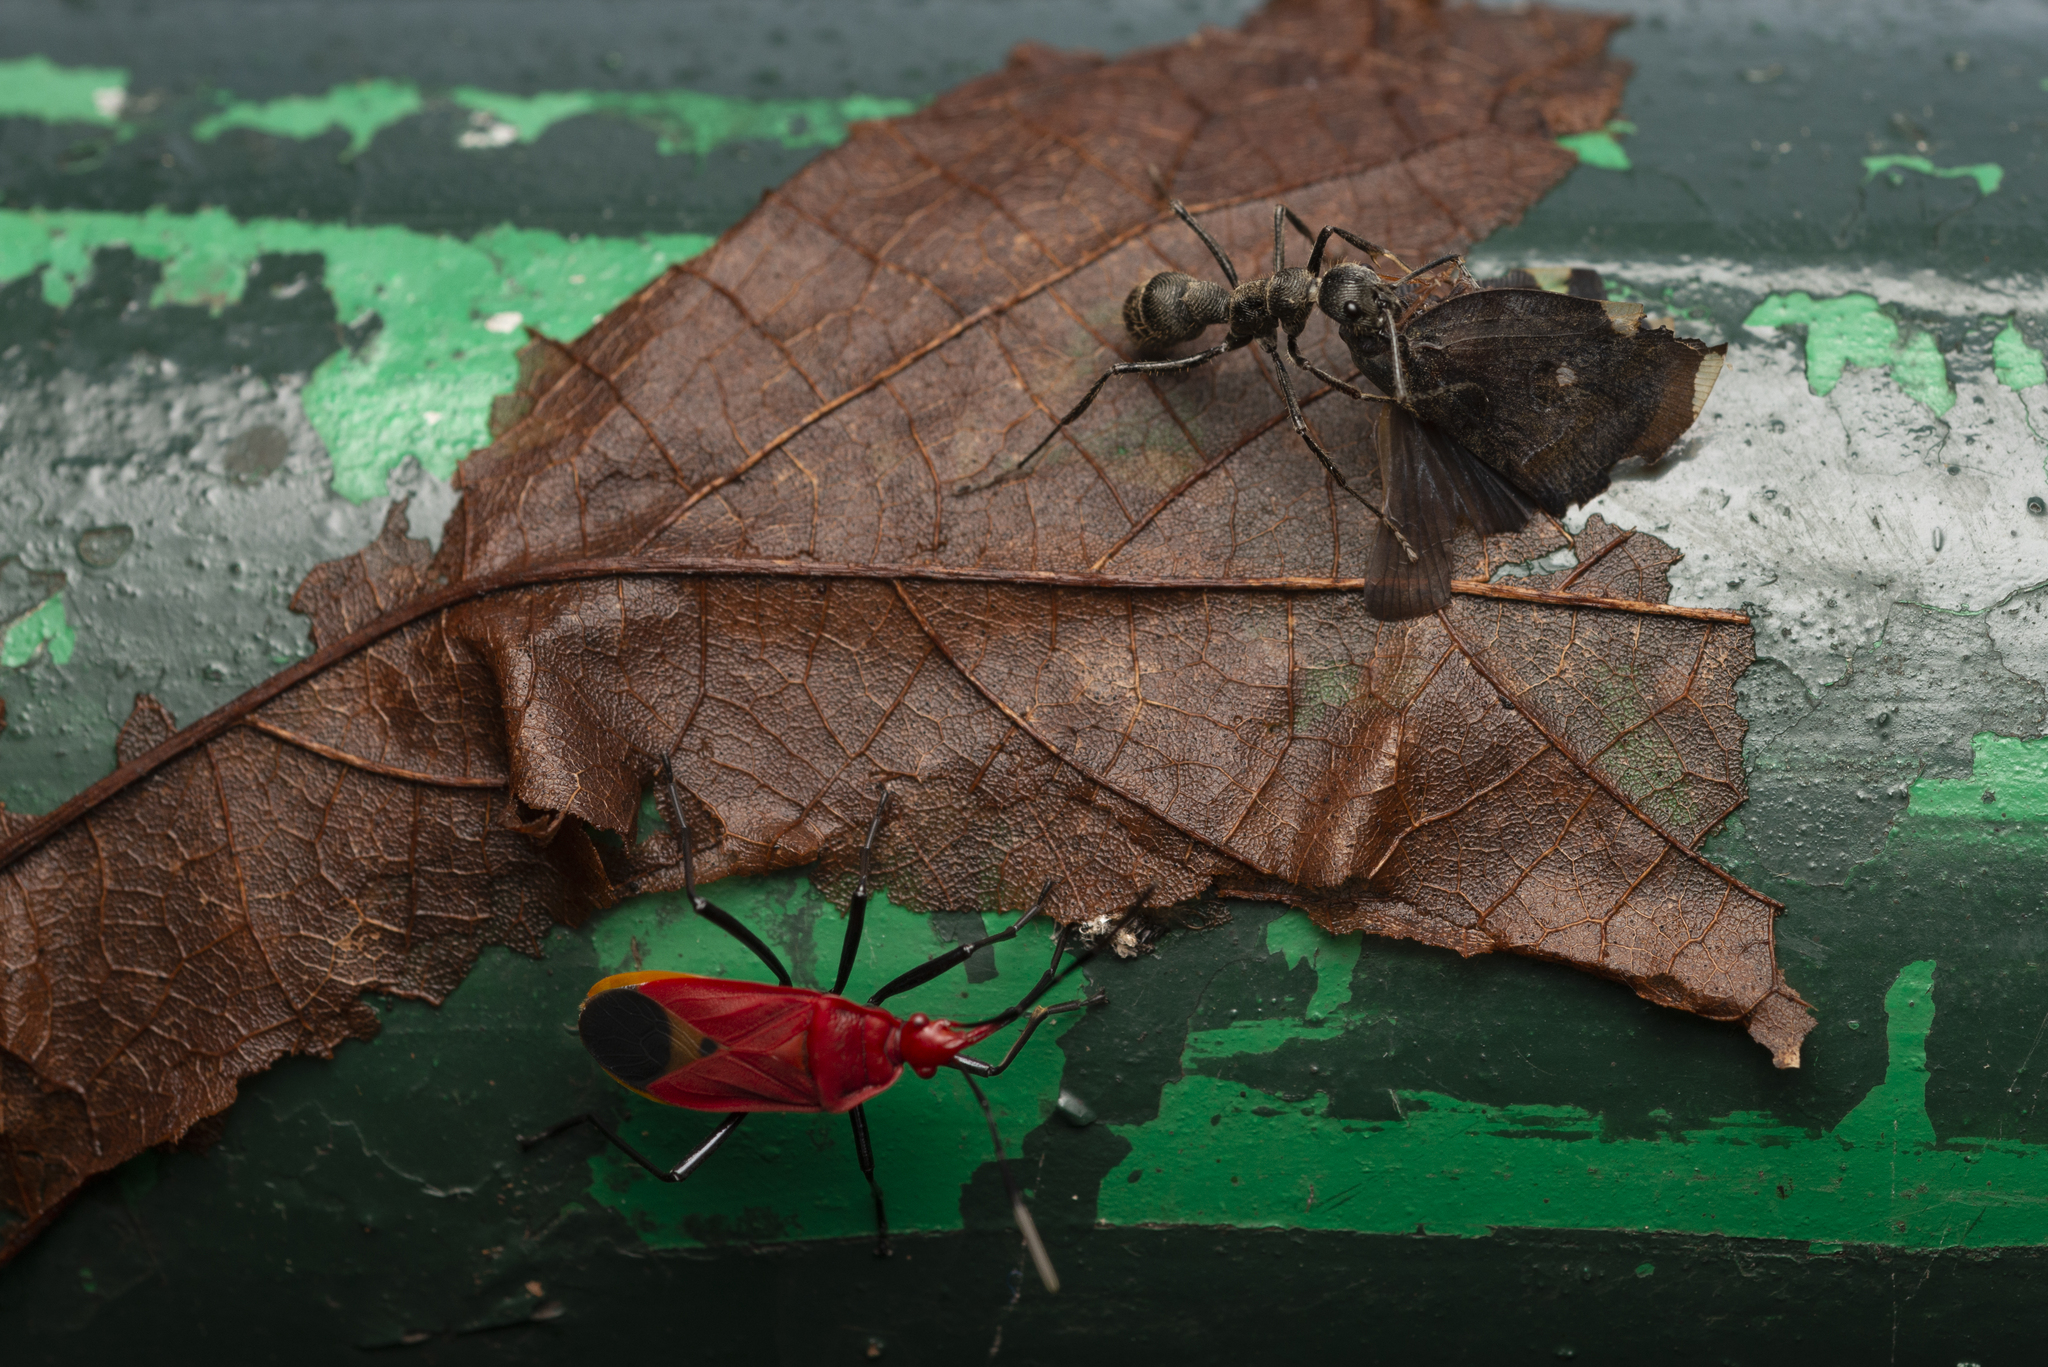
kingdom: Animalia
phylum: Arthropoda
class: Insecta
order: Hemiptera
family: Pyrrhocoridae
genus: Dindymus
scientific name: Dindymus
